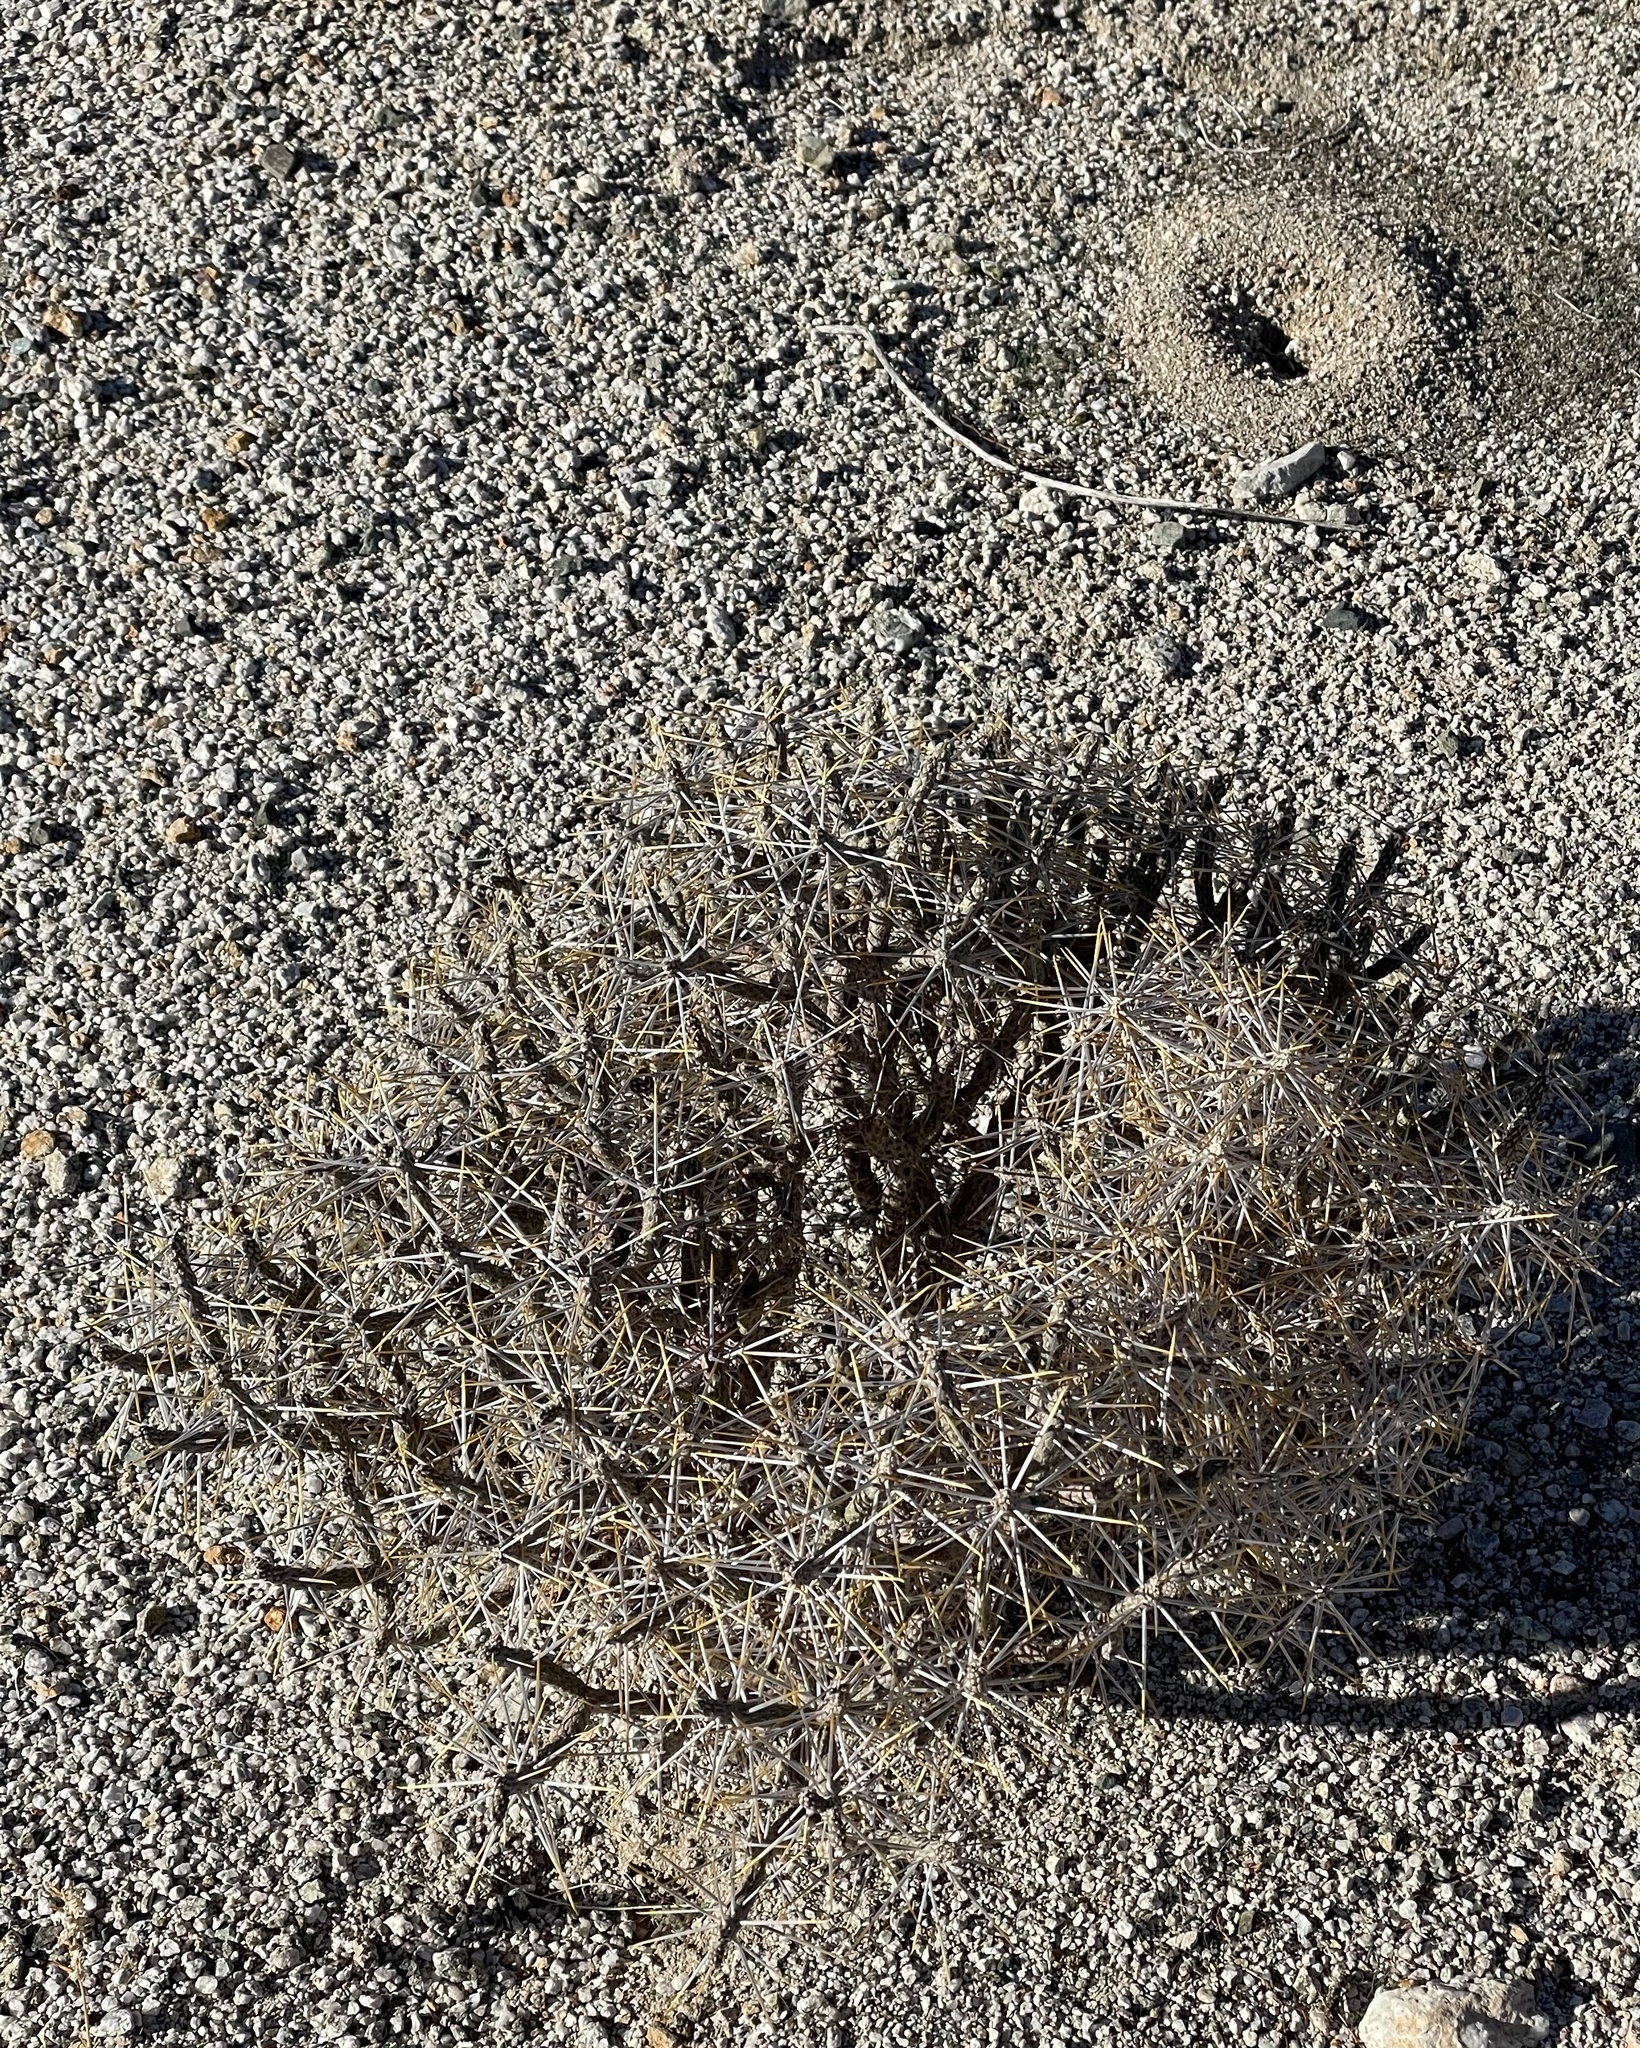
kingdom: Plantae
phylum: Tracheophyta
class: Magnoliopsida
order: Caryophyllales
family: Cactaceae
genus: Cylindropuntia
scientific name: Cylindropuntia ramosissima
